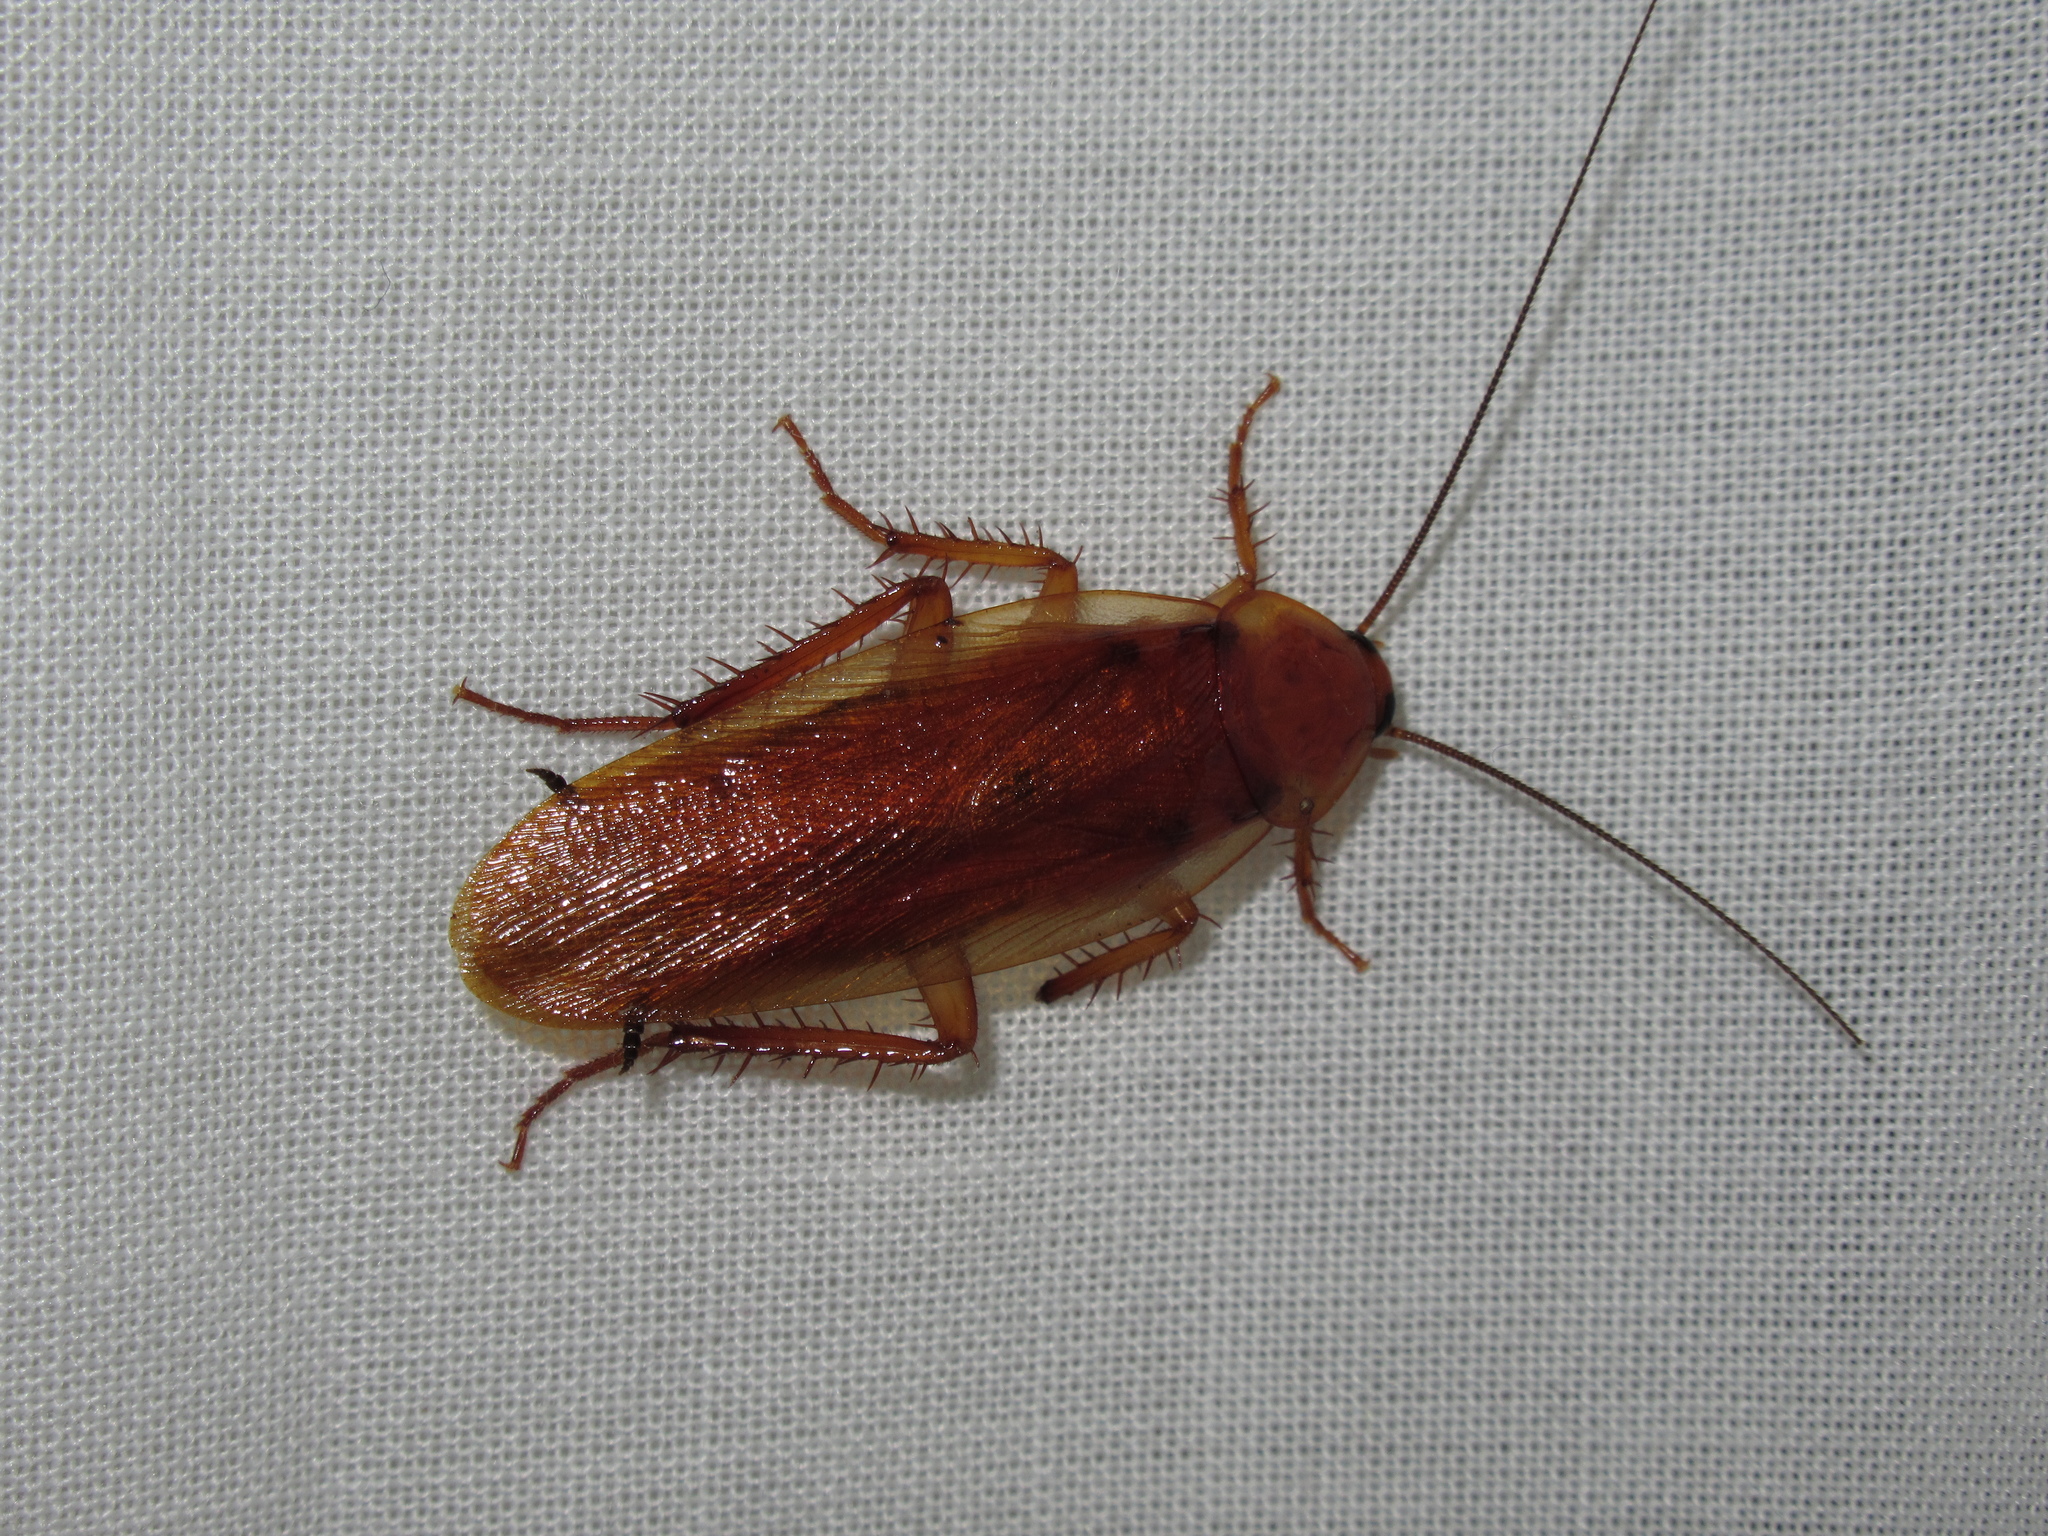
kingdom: Animalia
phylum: Arthropoda
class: Insecta
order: Blattodea
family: Ectobiidae
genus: Neotemnopteryx
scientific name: Neotemnopteryx fulva
